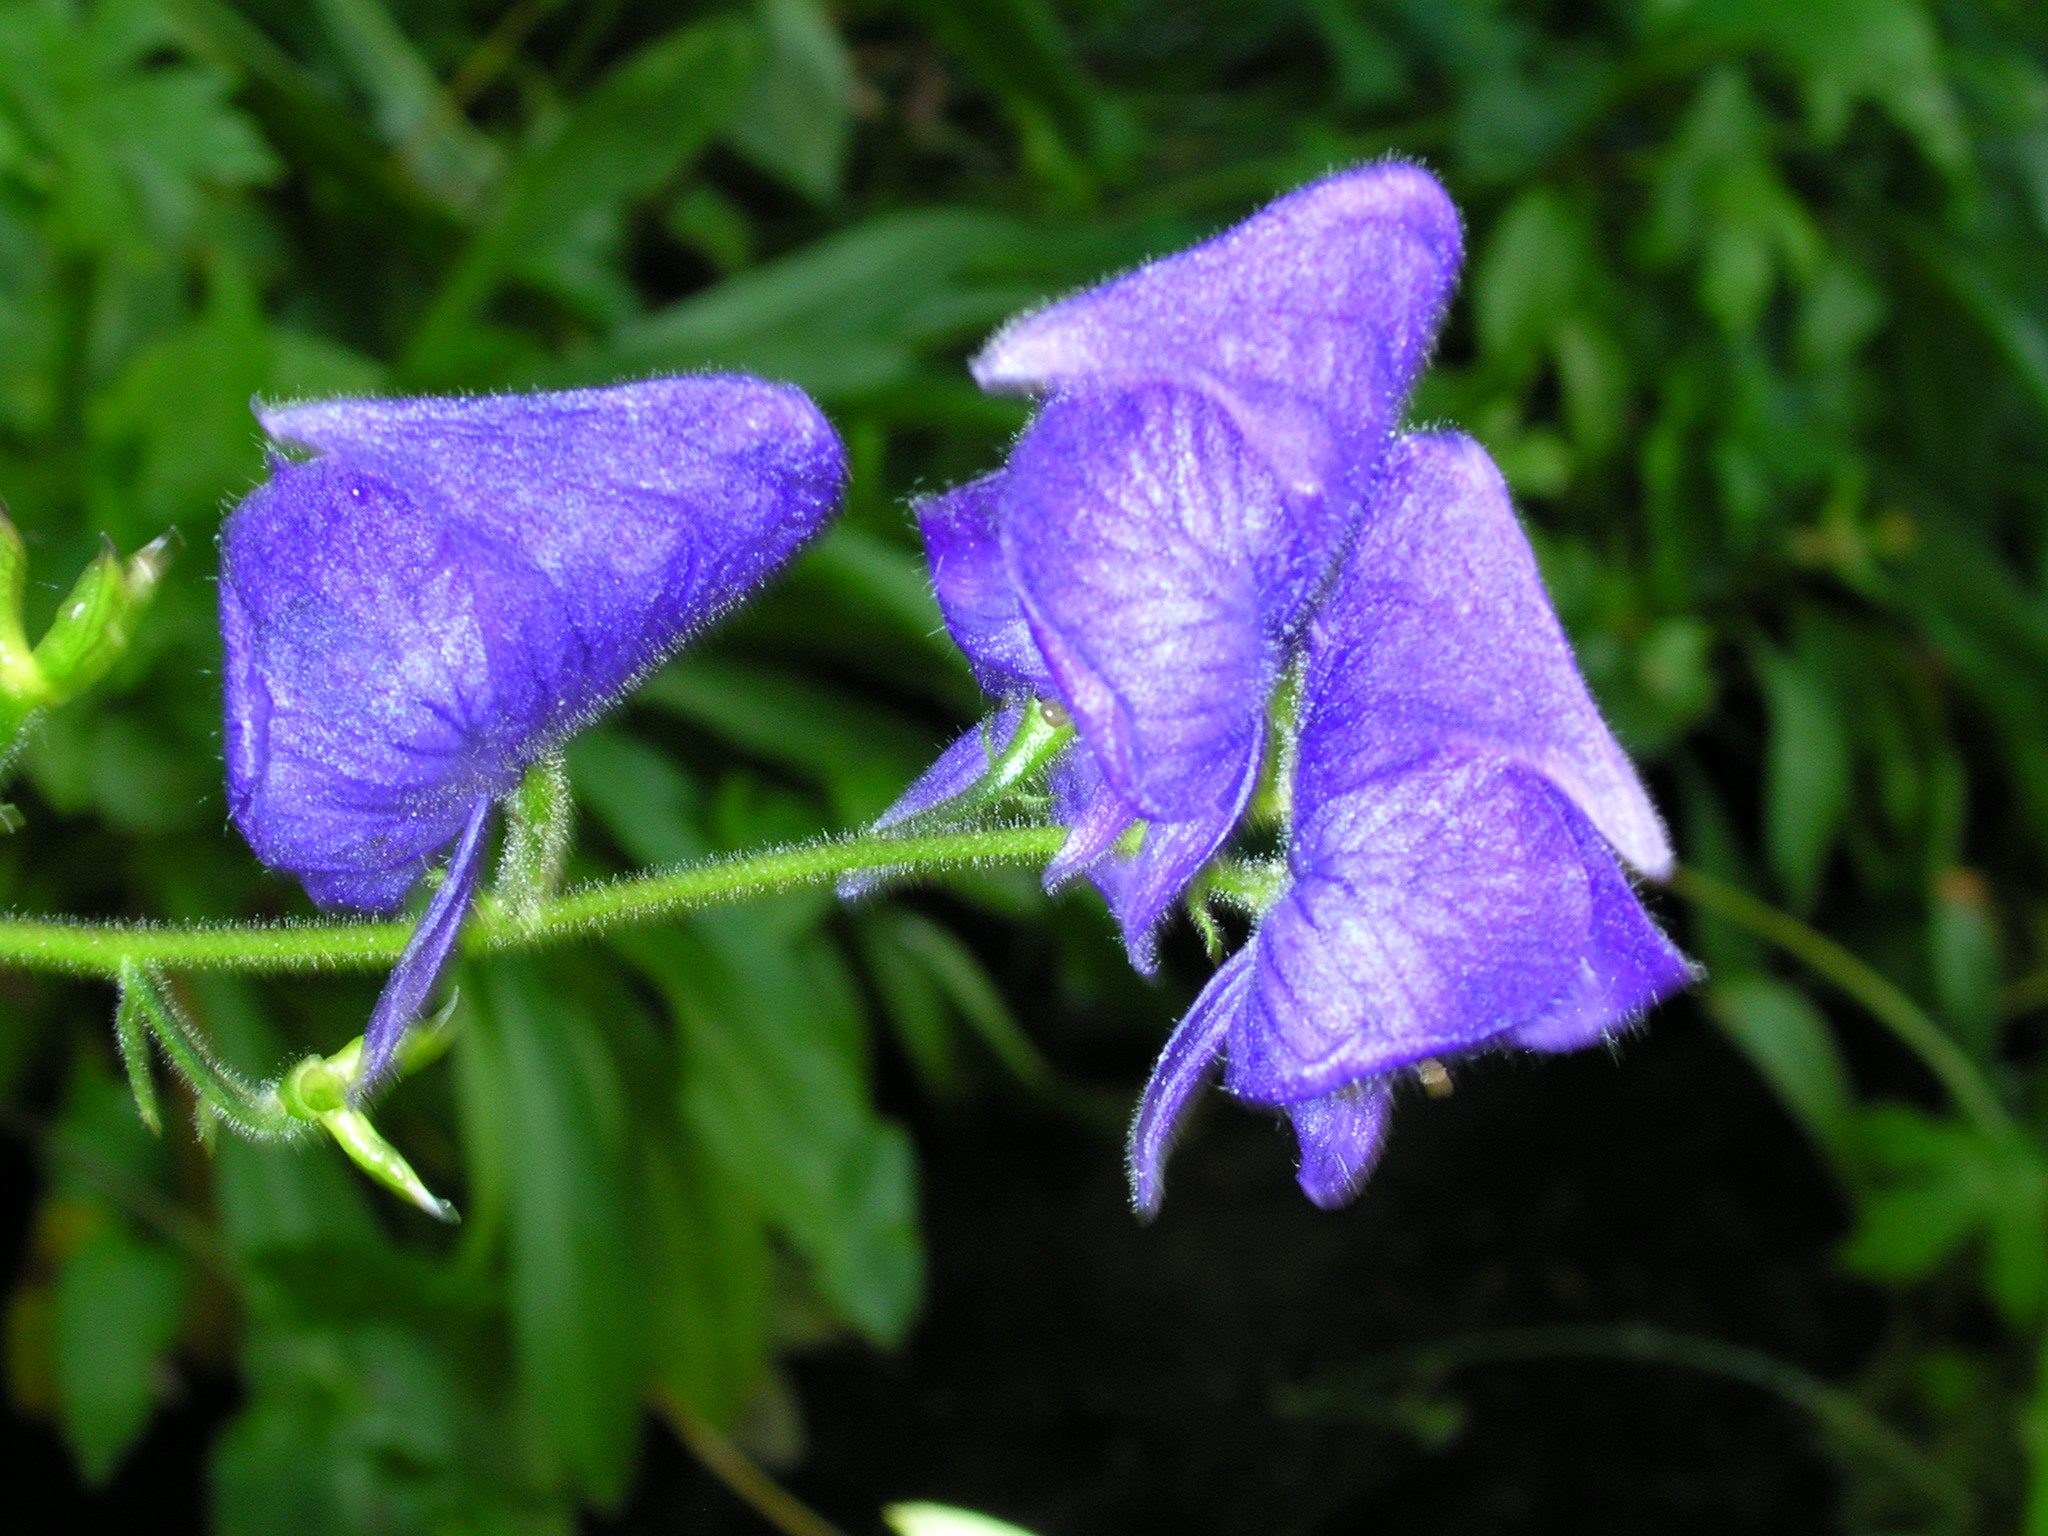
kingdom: Plantae
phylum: Tracheophyta
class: Magnoliopsida
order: Ranunculales
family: Ranunculaceae
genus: Aconitum
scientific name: Aconitum columbianum
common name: Columbia aconite
